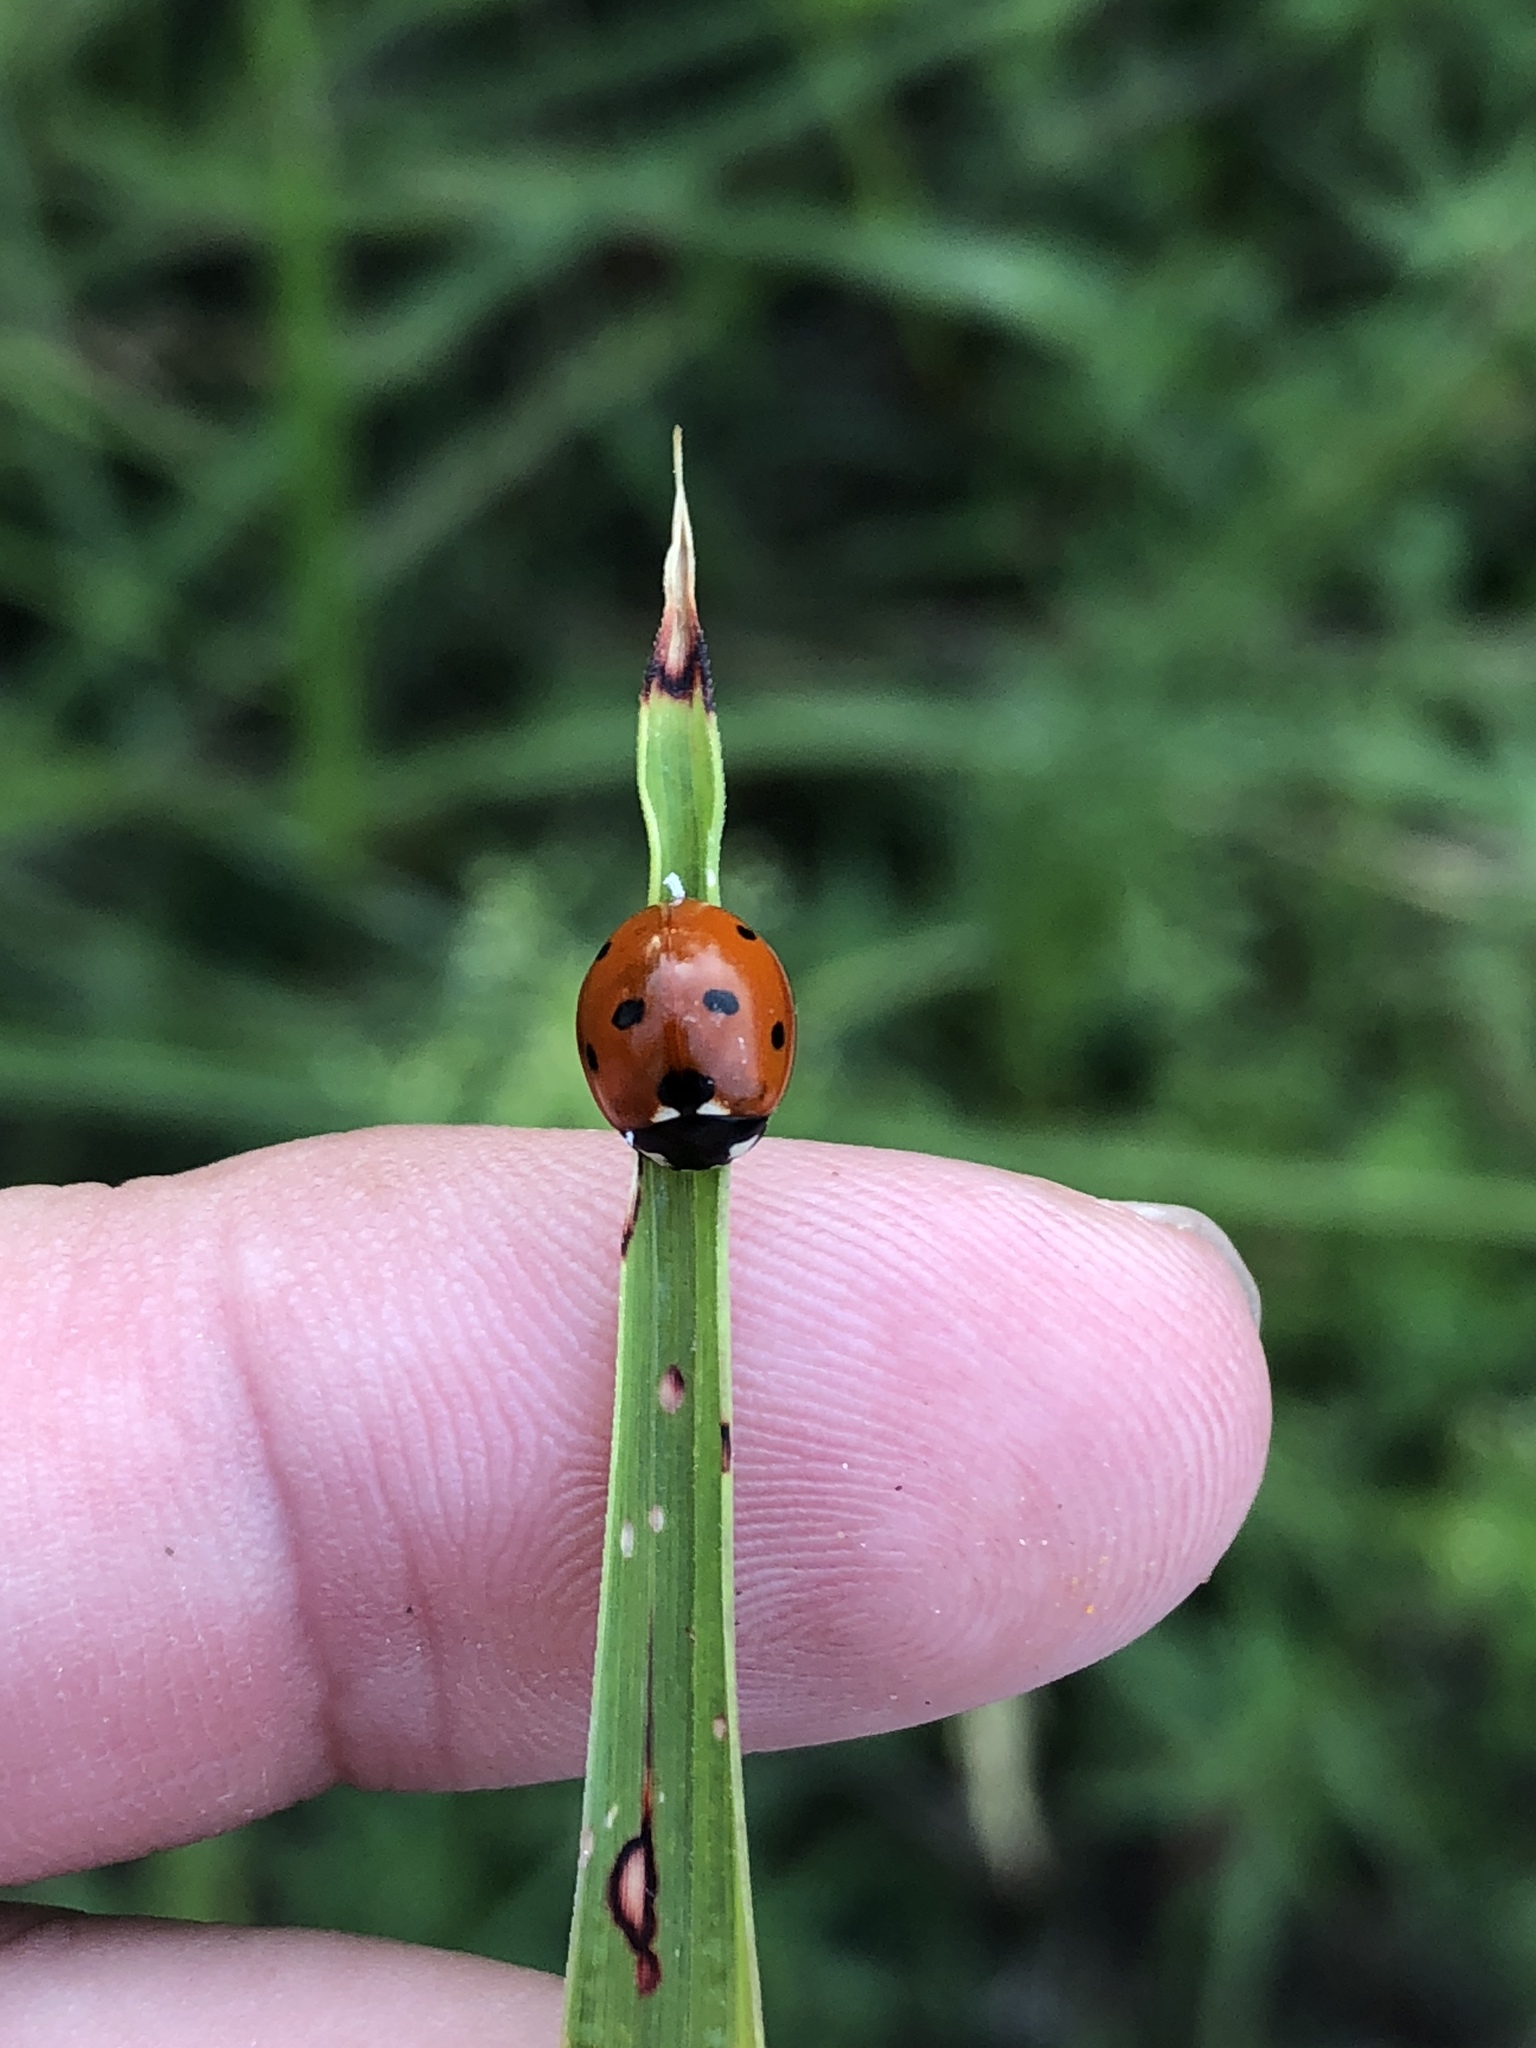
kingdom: Animalia
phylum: Arthropoda
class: Insecta
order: Coleoptera
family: Coccinellidae
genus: Coccinella
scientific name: Coccinella septempunctata
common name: Sevenspotted lady beetle
